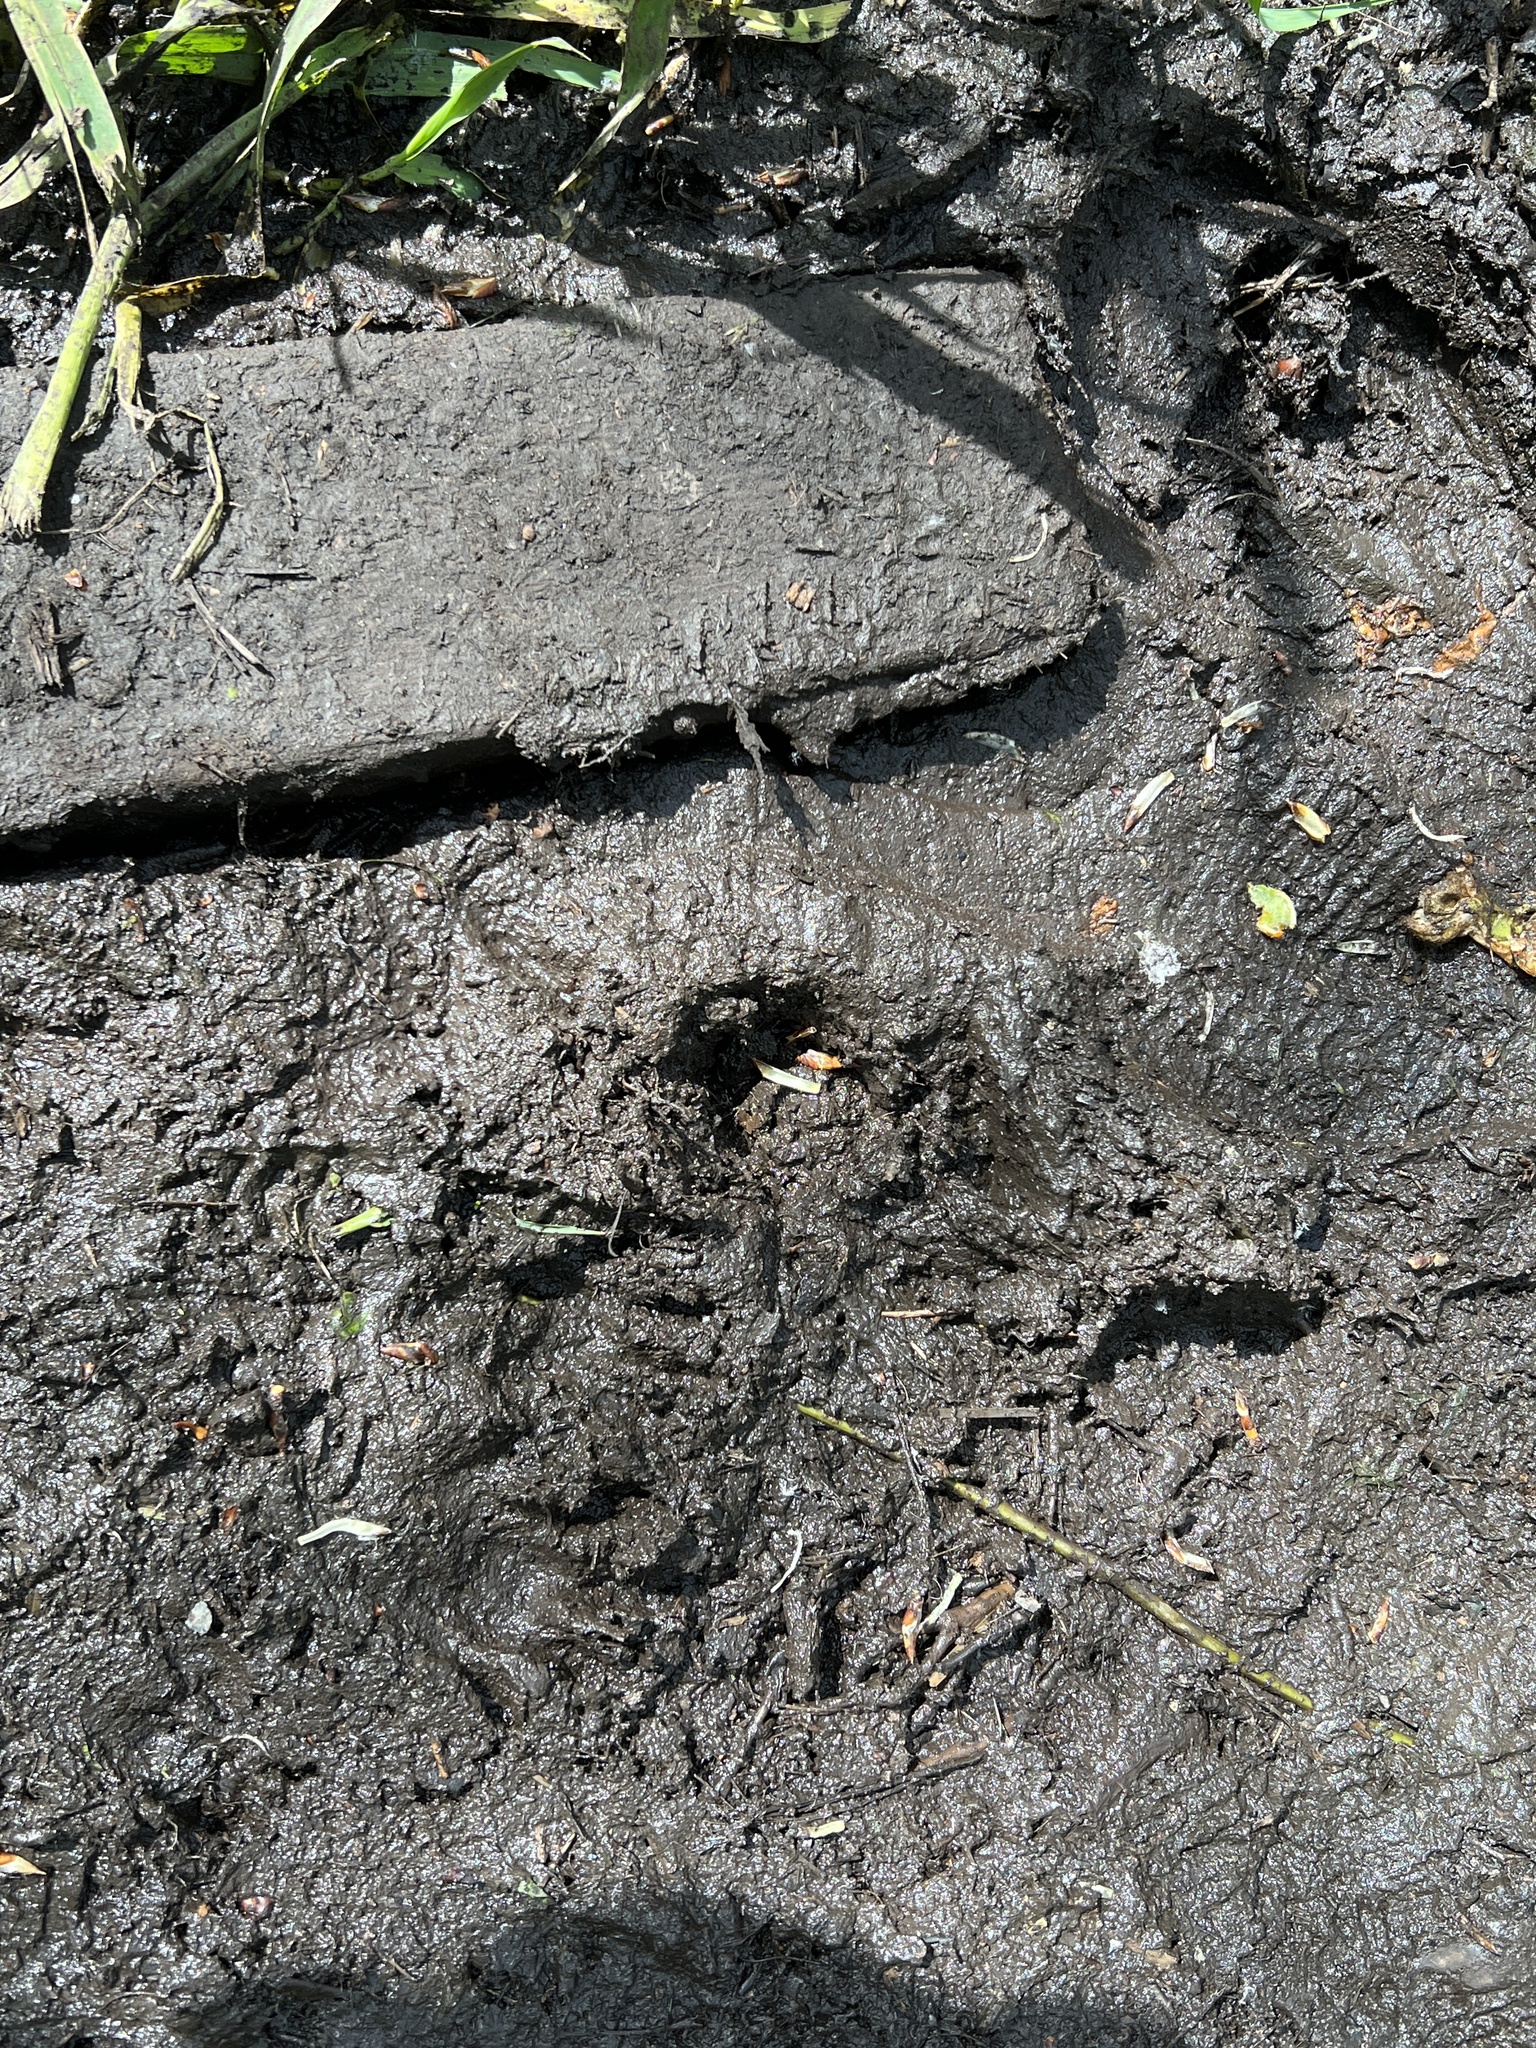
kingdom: Animalia
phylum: Chordata
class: Mammalia
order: Carnivora
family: Procyonidae
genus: Procyon
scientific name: Procyon lotor
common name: Raccoon
